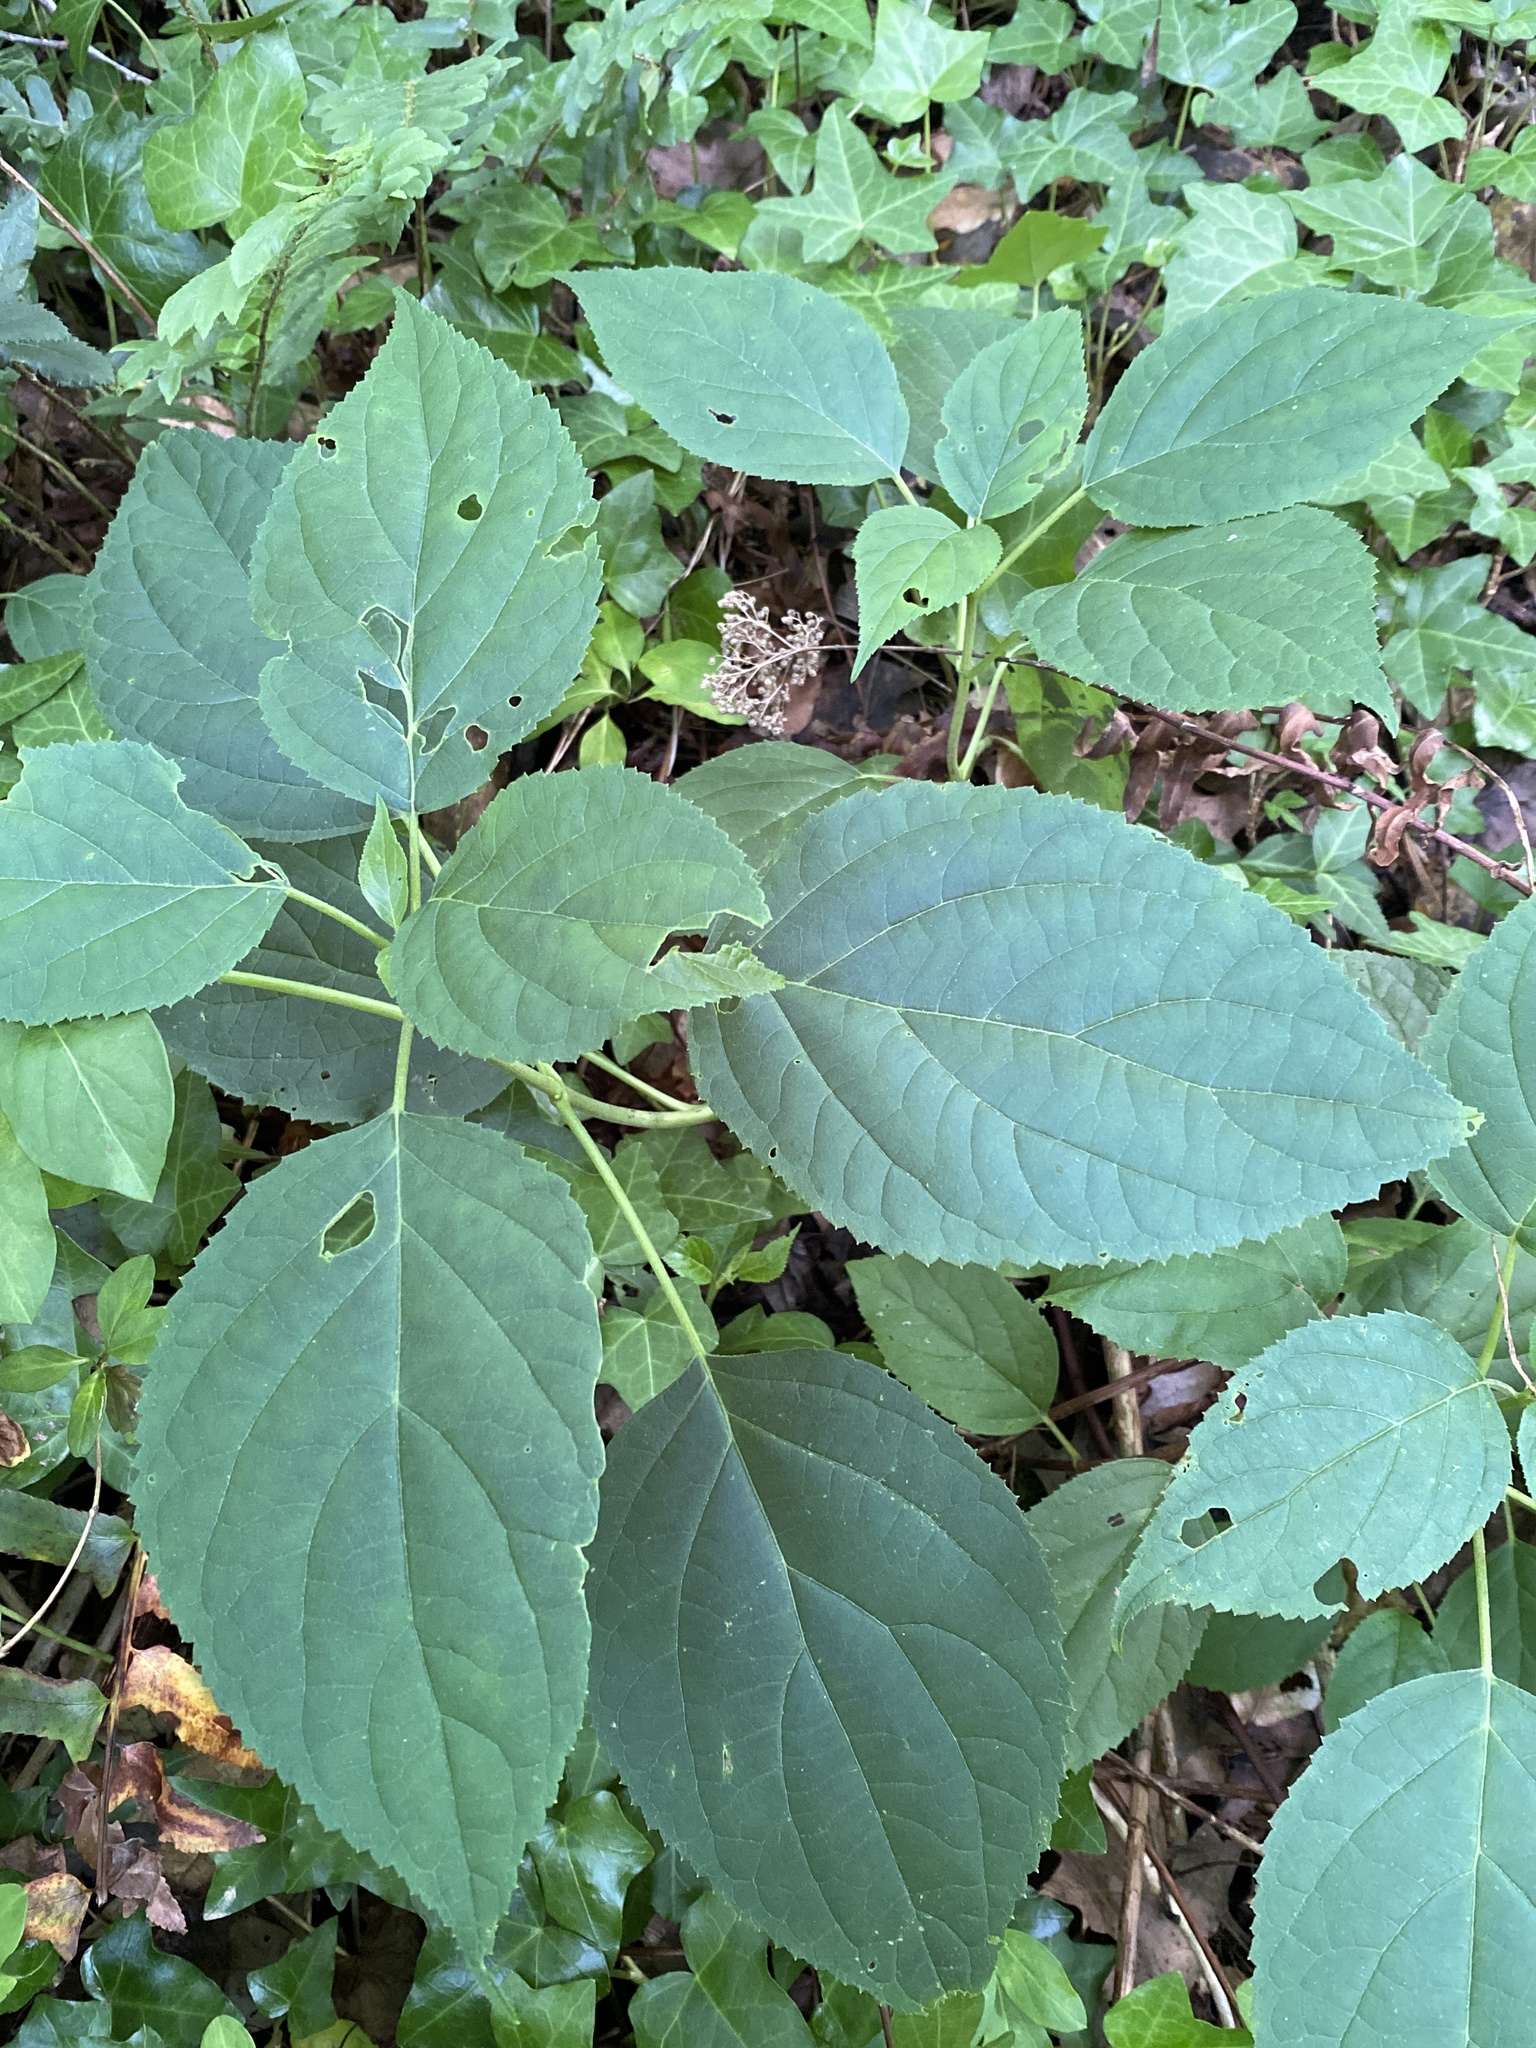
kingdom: Plantae
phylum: Tracheophyta
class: Magnoliopsida
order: Cornales
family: Hydrangeaceae
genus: Hydrangea
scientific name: Hydrangea arborescens
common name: Sevenbark
